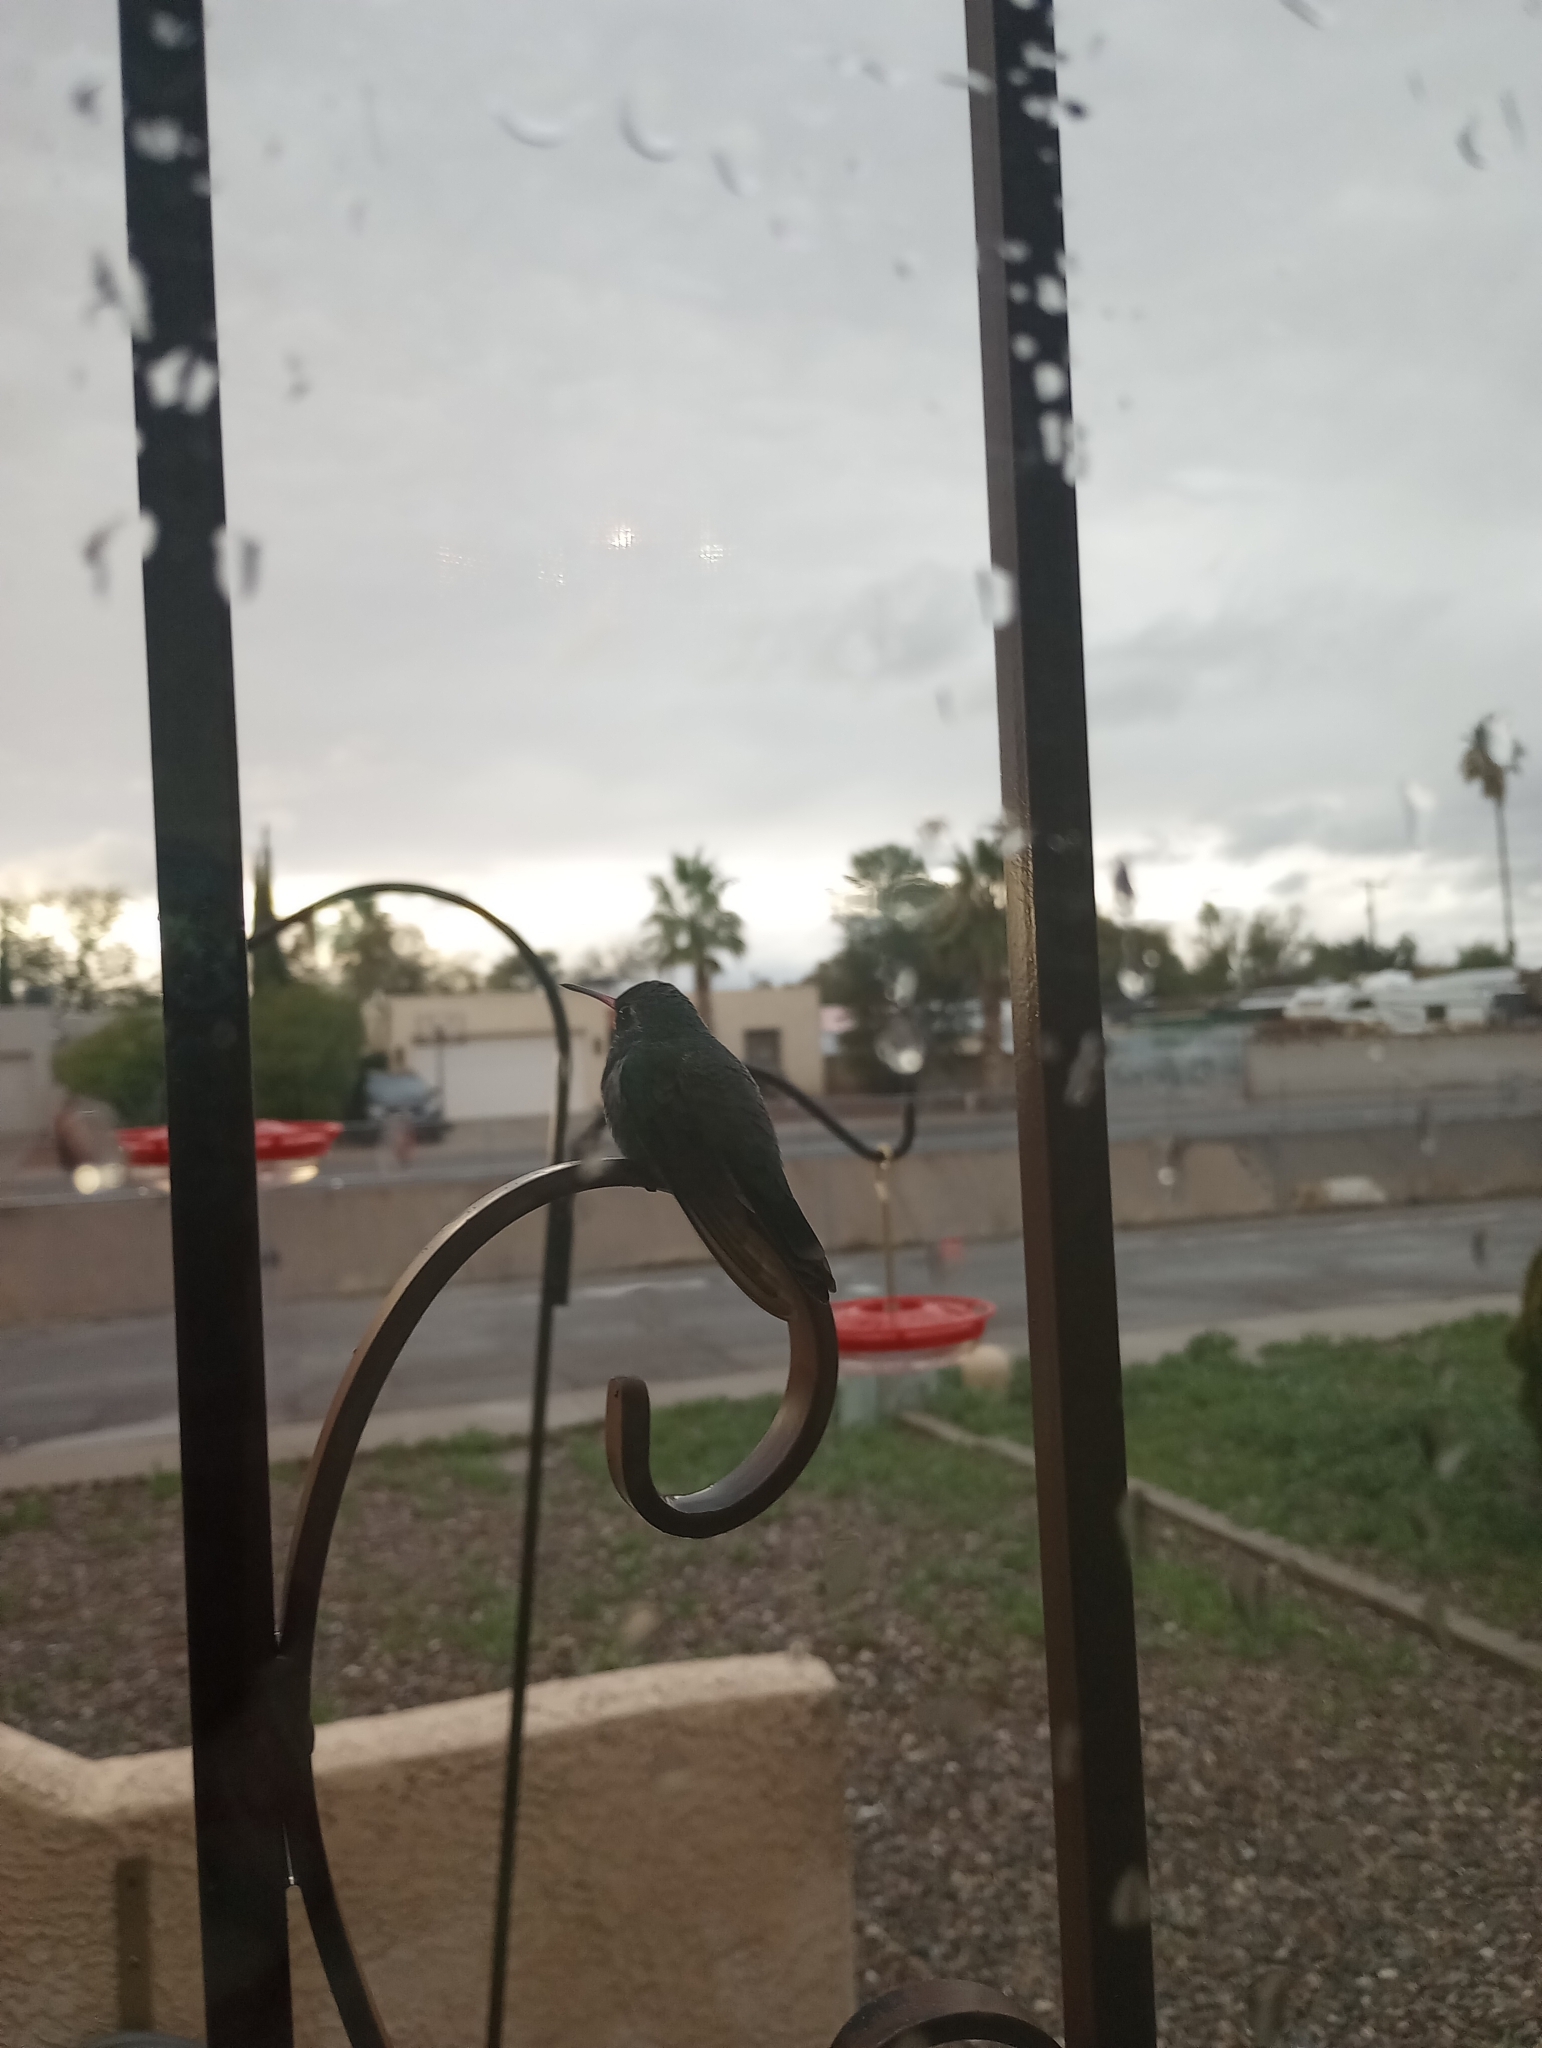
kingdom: Animalia
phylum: Chordata
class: Aves
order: Apodiformes
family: Trochilidae
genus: Cynanthus
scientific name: Cynanthus latirostris
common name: Broad-billed hummingbird
